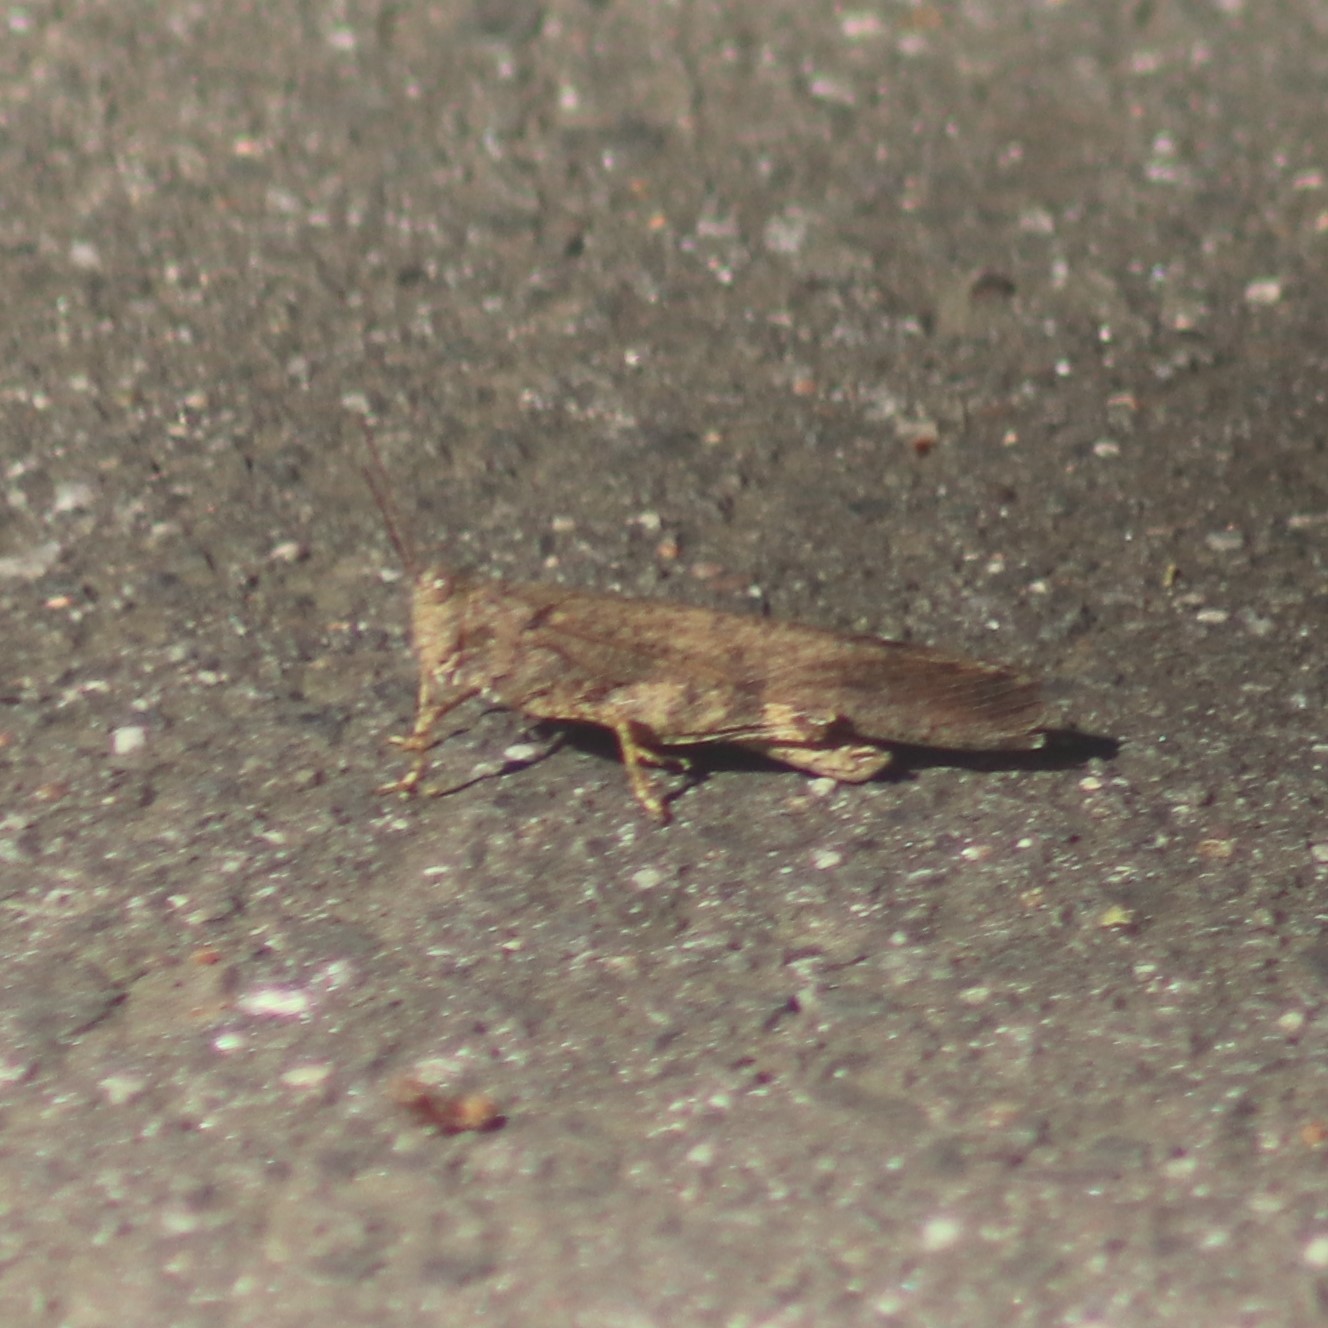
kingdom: Animalia
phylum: Arthropoda
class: Insecta
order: Orthoptera
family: Acrididae
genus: Dissosteira
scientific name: Dissosteira carolina
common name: Carolina grasshopper
